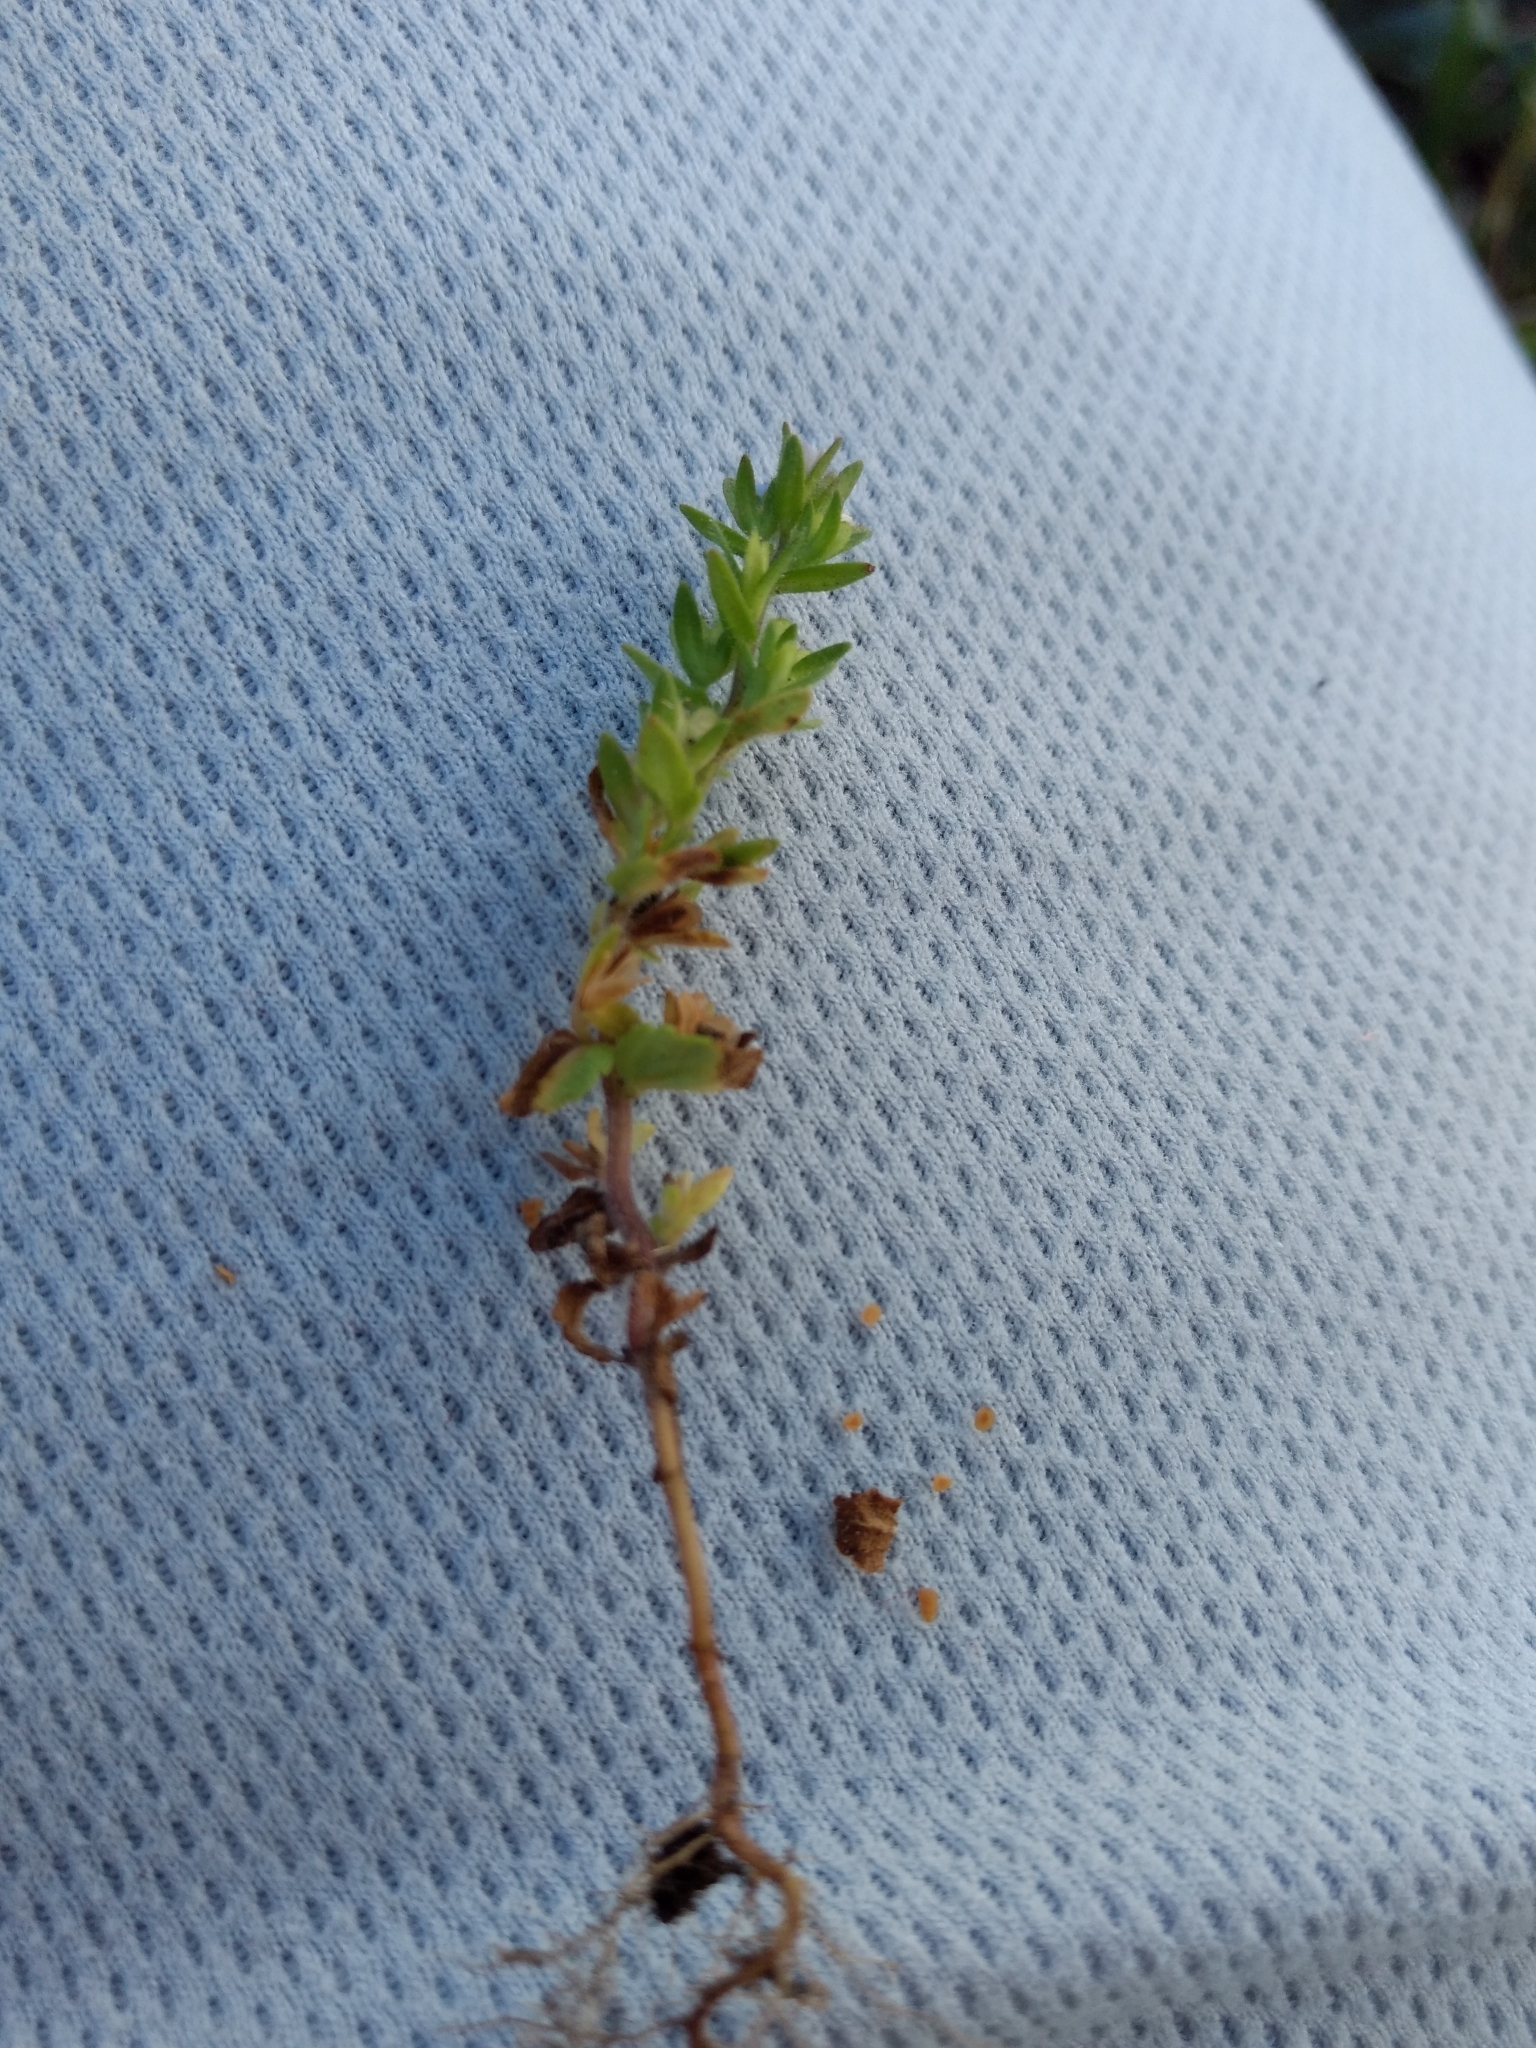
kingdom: Plantae
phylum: Tracheophyta
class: Magnoliopsida
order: Lamiales
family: Plantaginaceae
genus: Veronica
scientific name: Veronica arvensis
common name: Corn speedwell
